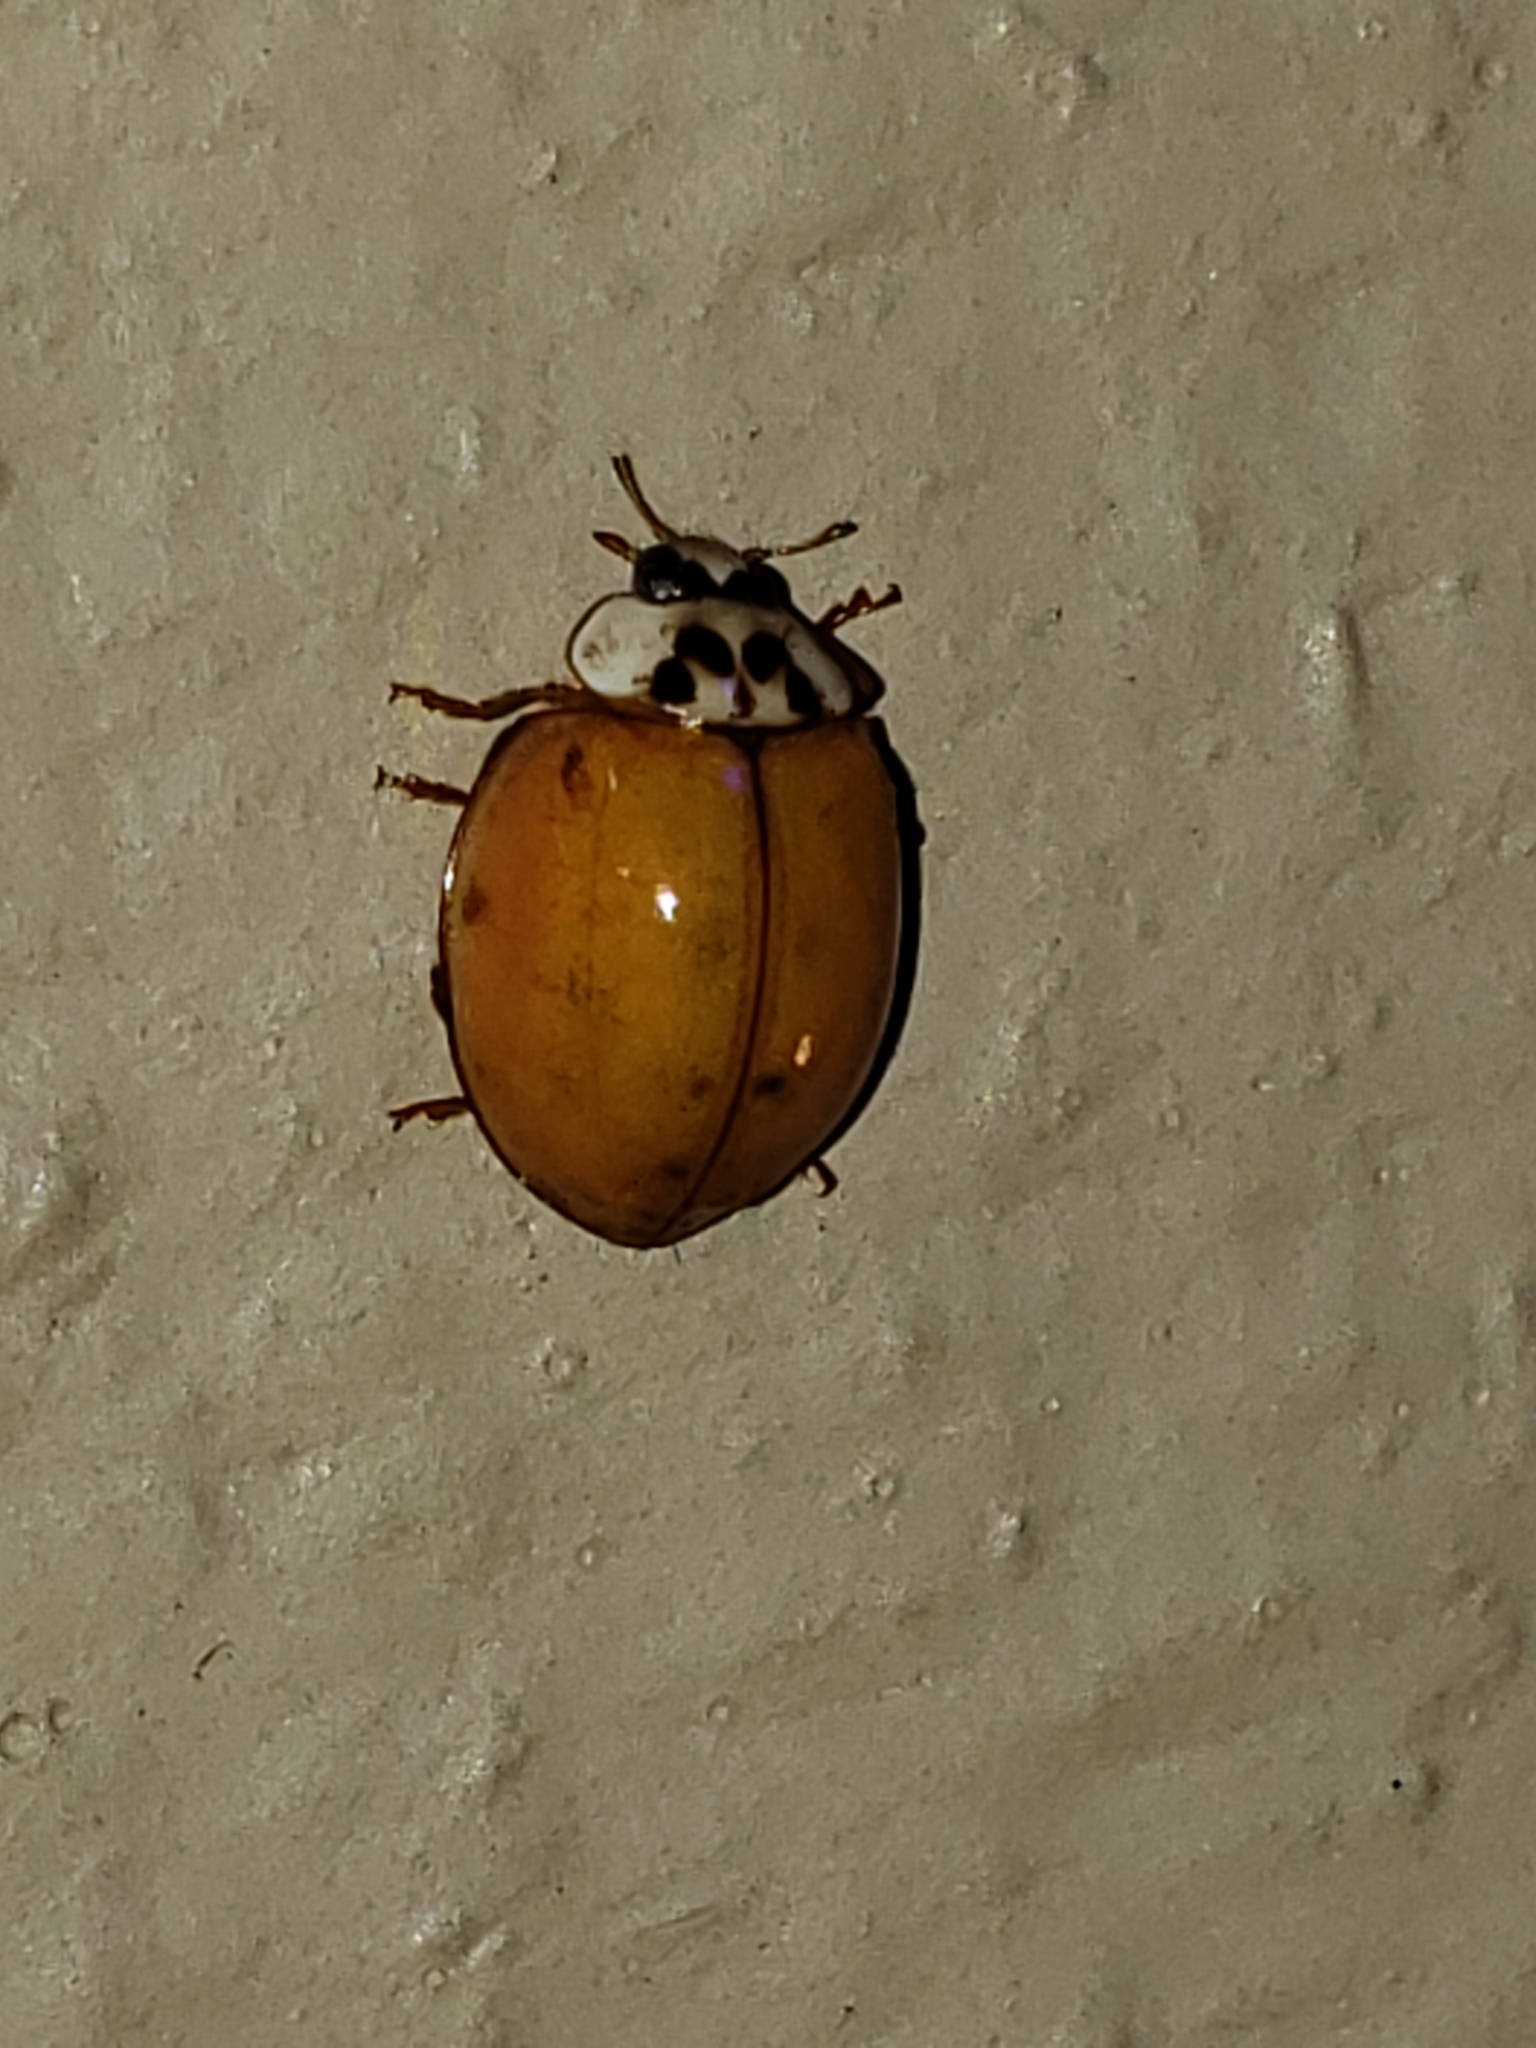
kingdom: Animalia
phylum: Arthropoda
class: Insecta
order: Coleoptera
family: Coccinellidae
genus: Harmonia
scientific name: Harmonia axyridis
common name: Harlequin ladybird
